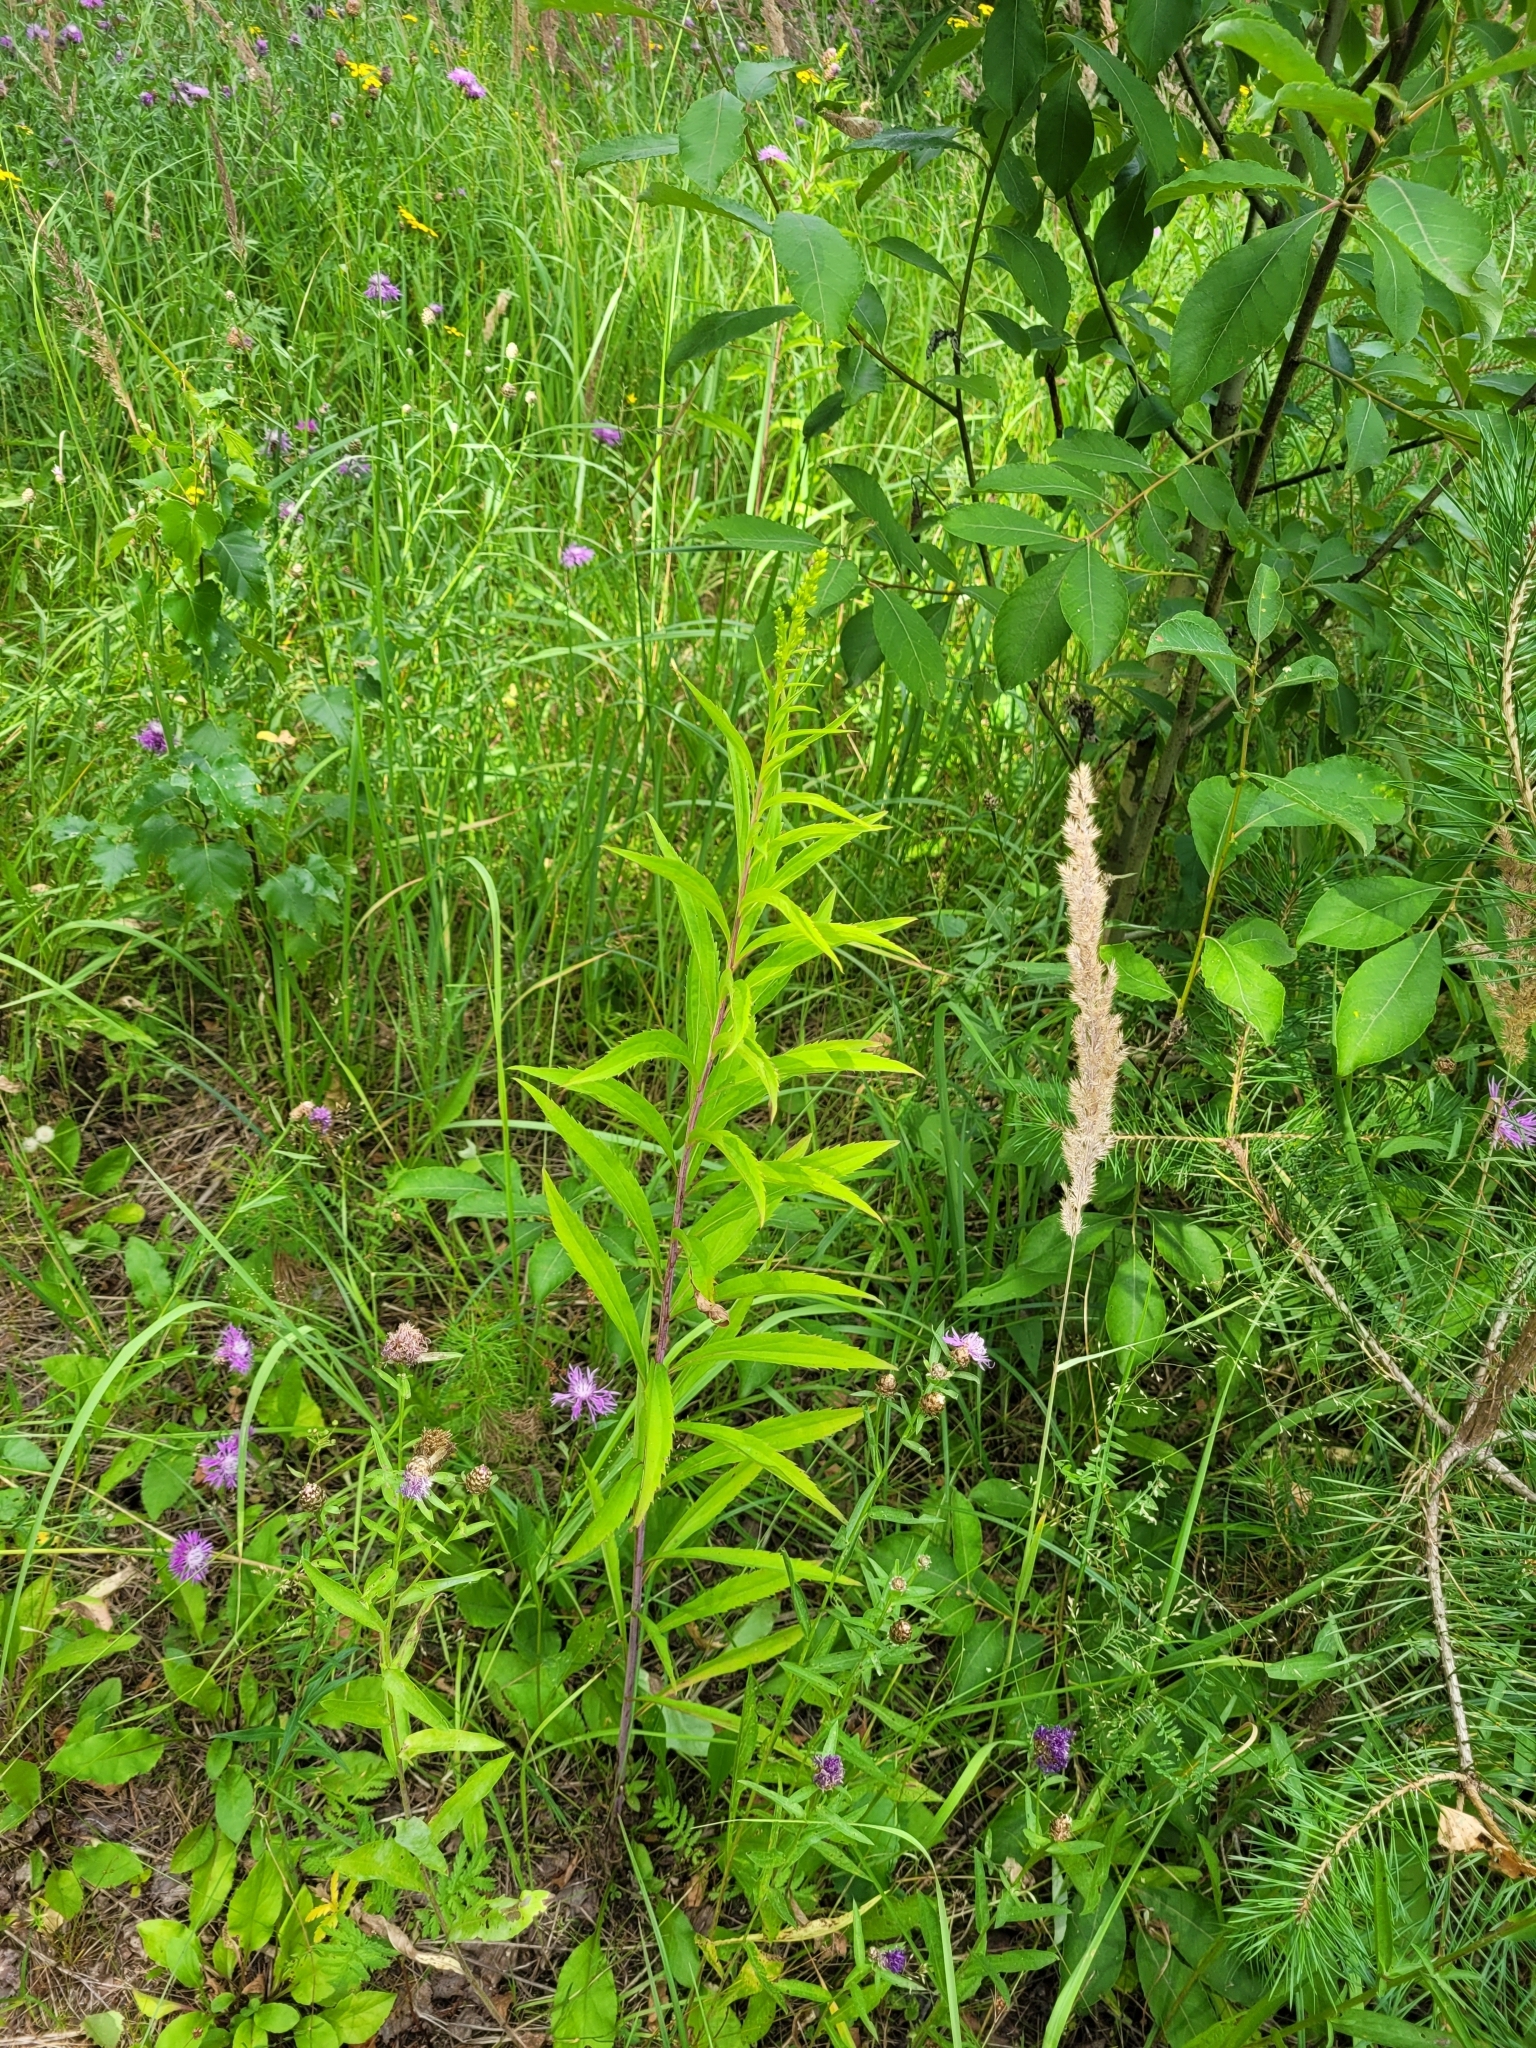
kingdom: Plantae
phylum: Tracheophyta
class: Magnoliopsida
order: Asterales
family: Asteraceae
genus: Solidago
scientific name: Solidago gigantea
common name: Giant goldenrod
